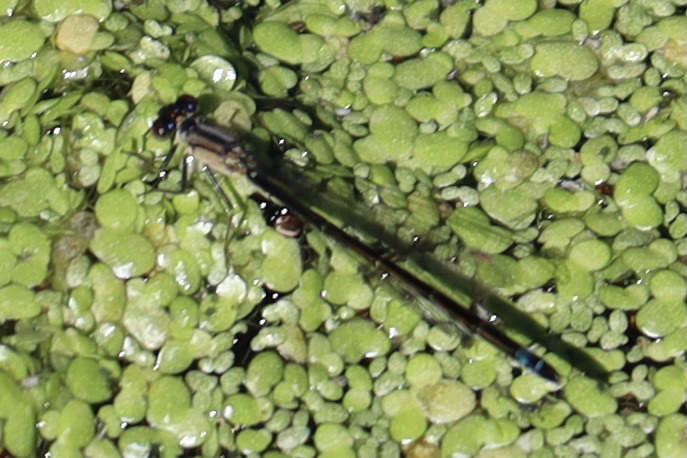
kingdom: Animalia
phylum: Arthropoda
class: Insecta
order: Odonata
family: Coenagrionidae
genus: Ischnura
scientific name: Ischnura cervula
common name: Pacific forktail
